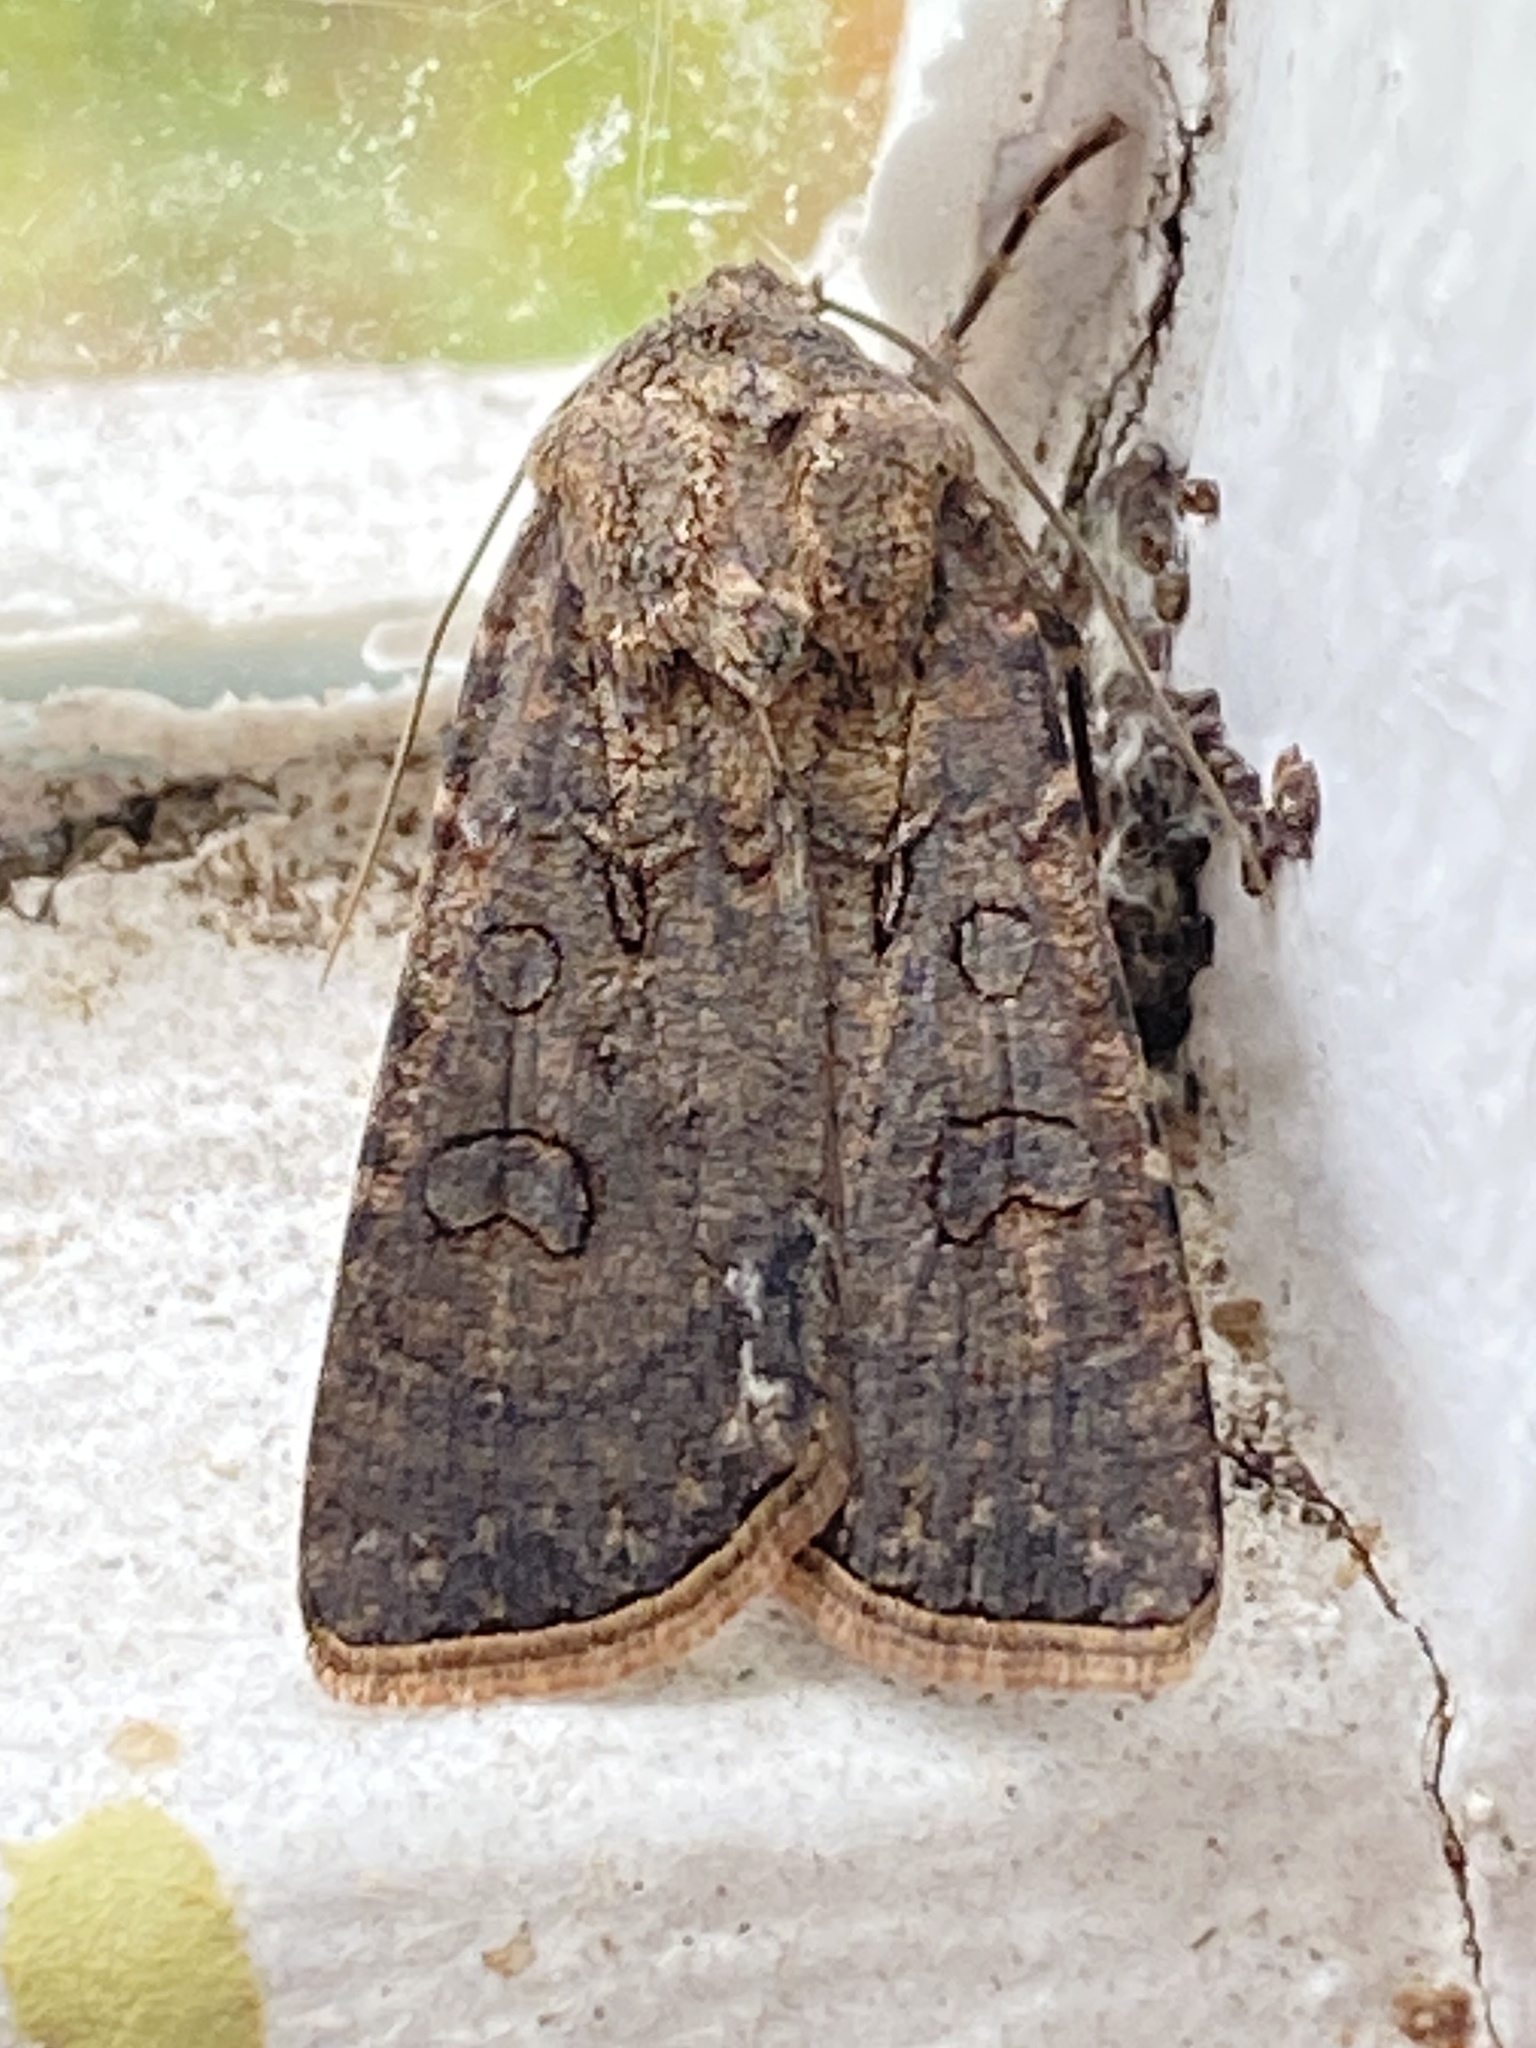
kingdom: Animalia
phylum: Arthropoda
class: Insecta
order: Lepidoptera
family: Noctuidae
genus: Agrotis
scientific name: Agrotis segetum
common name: Turnip moth
